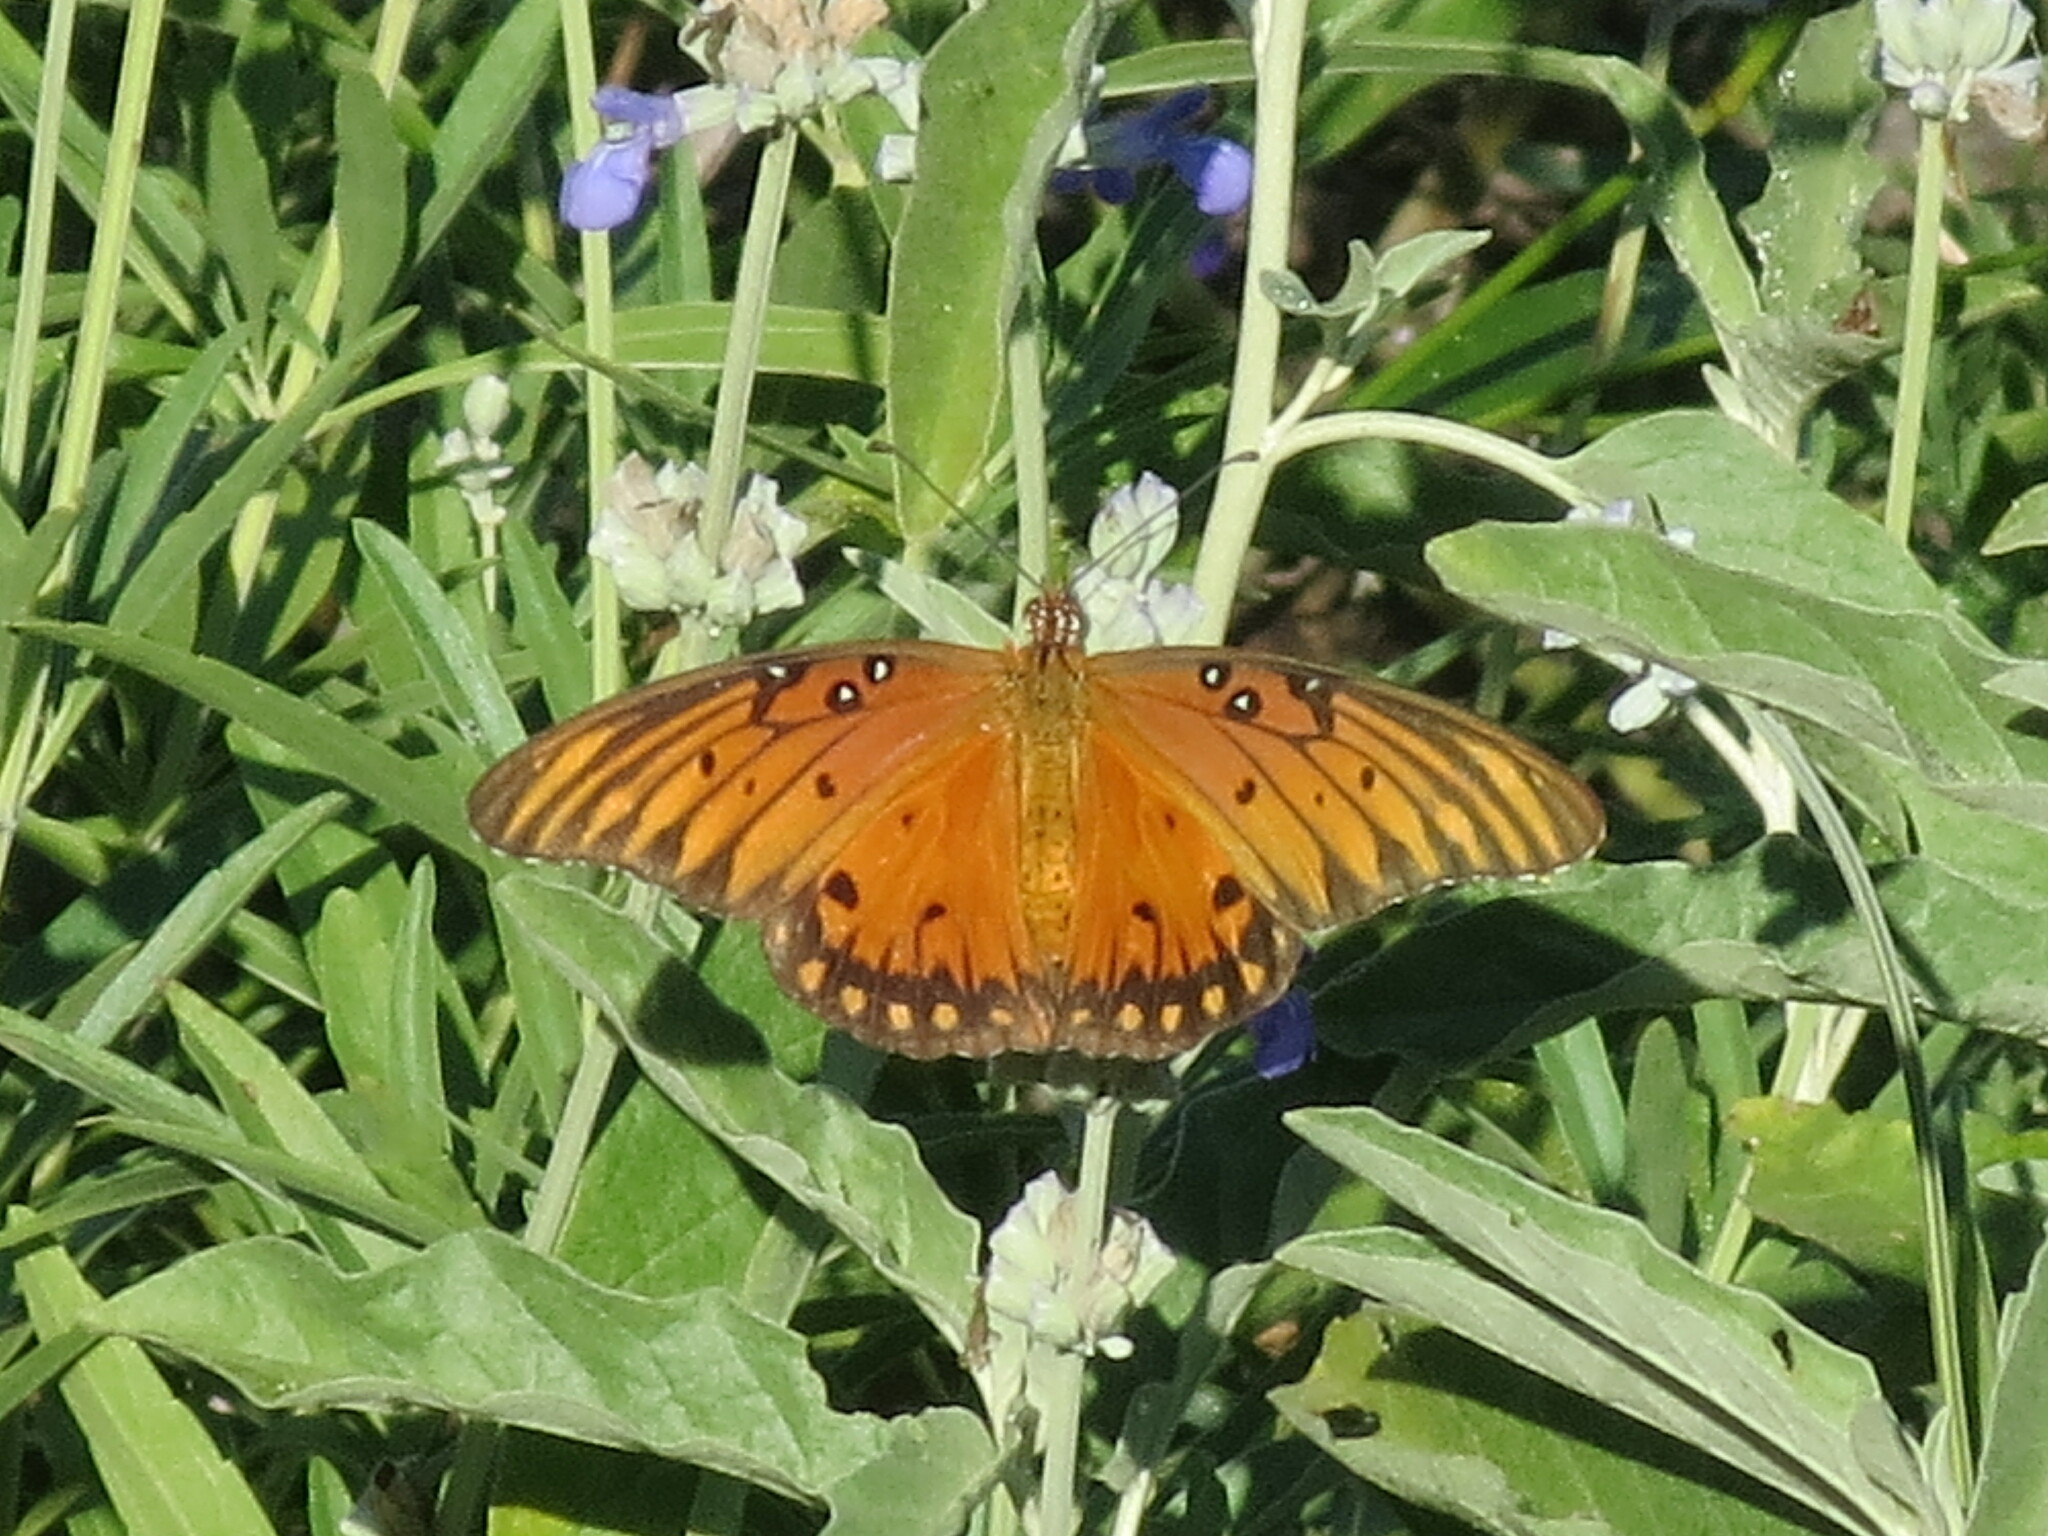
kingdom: Animalia
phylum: Arthropoda
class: Insecta
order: Lepidoptera
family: Nymphalidae
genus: Dione
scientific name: Dione vanillae
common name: Gulf fritillary
